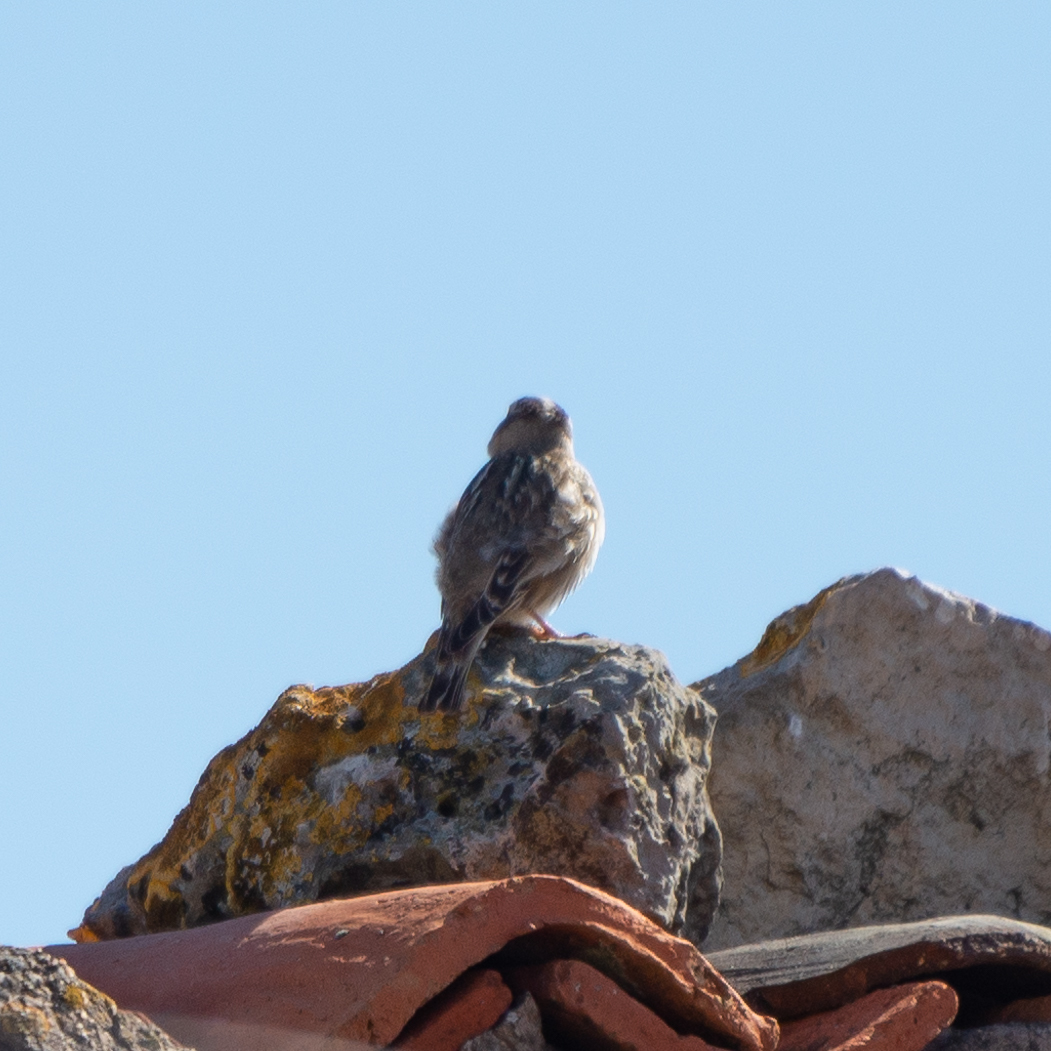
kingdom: Animalia
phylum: Chordata
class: Aves
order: Passeriformes
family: Passeridae
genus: Petronia
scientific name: Petronia petronia
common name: Rock sparrow
